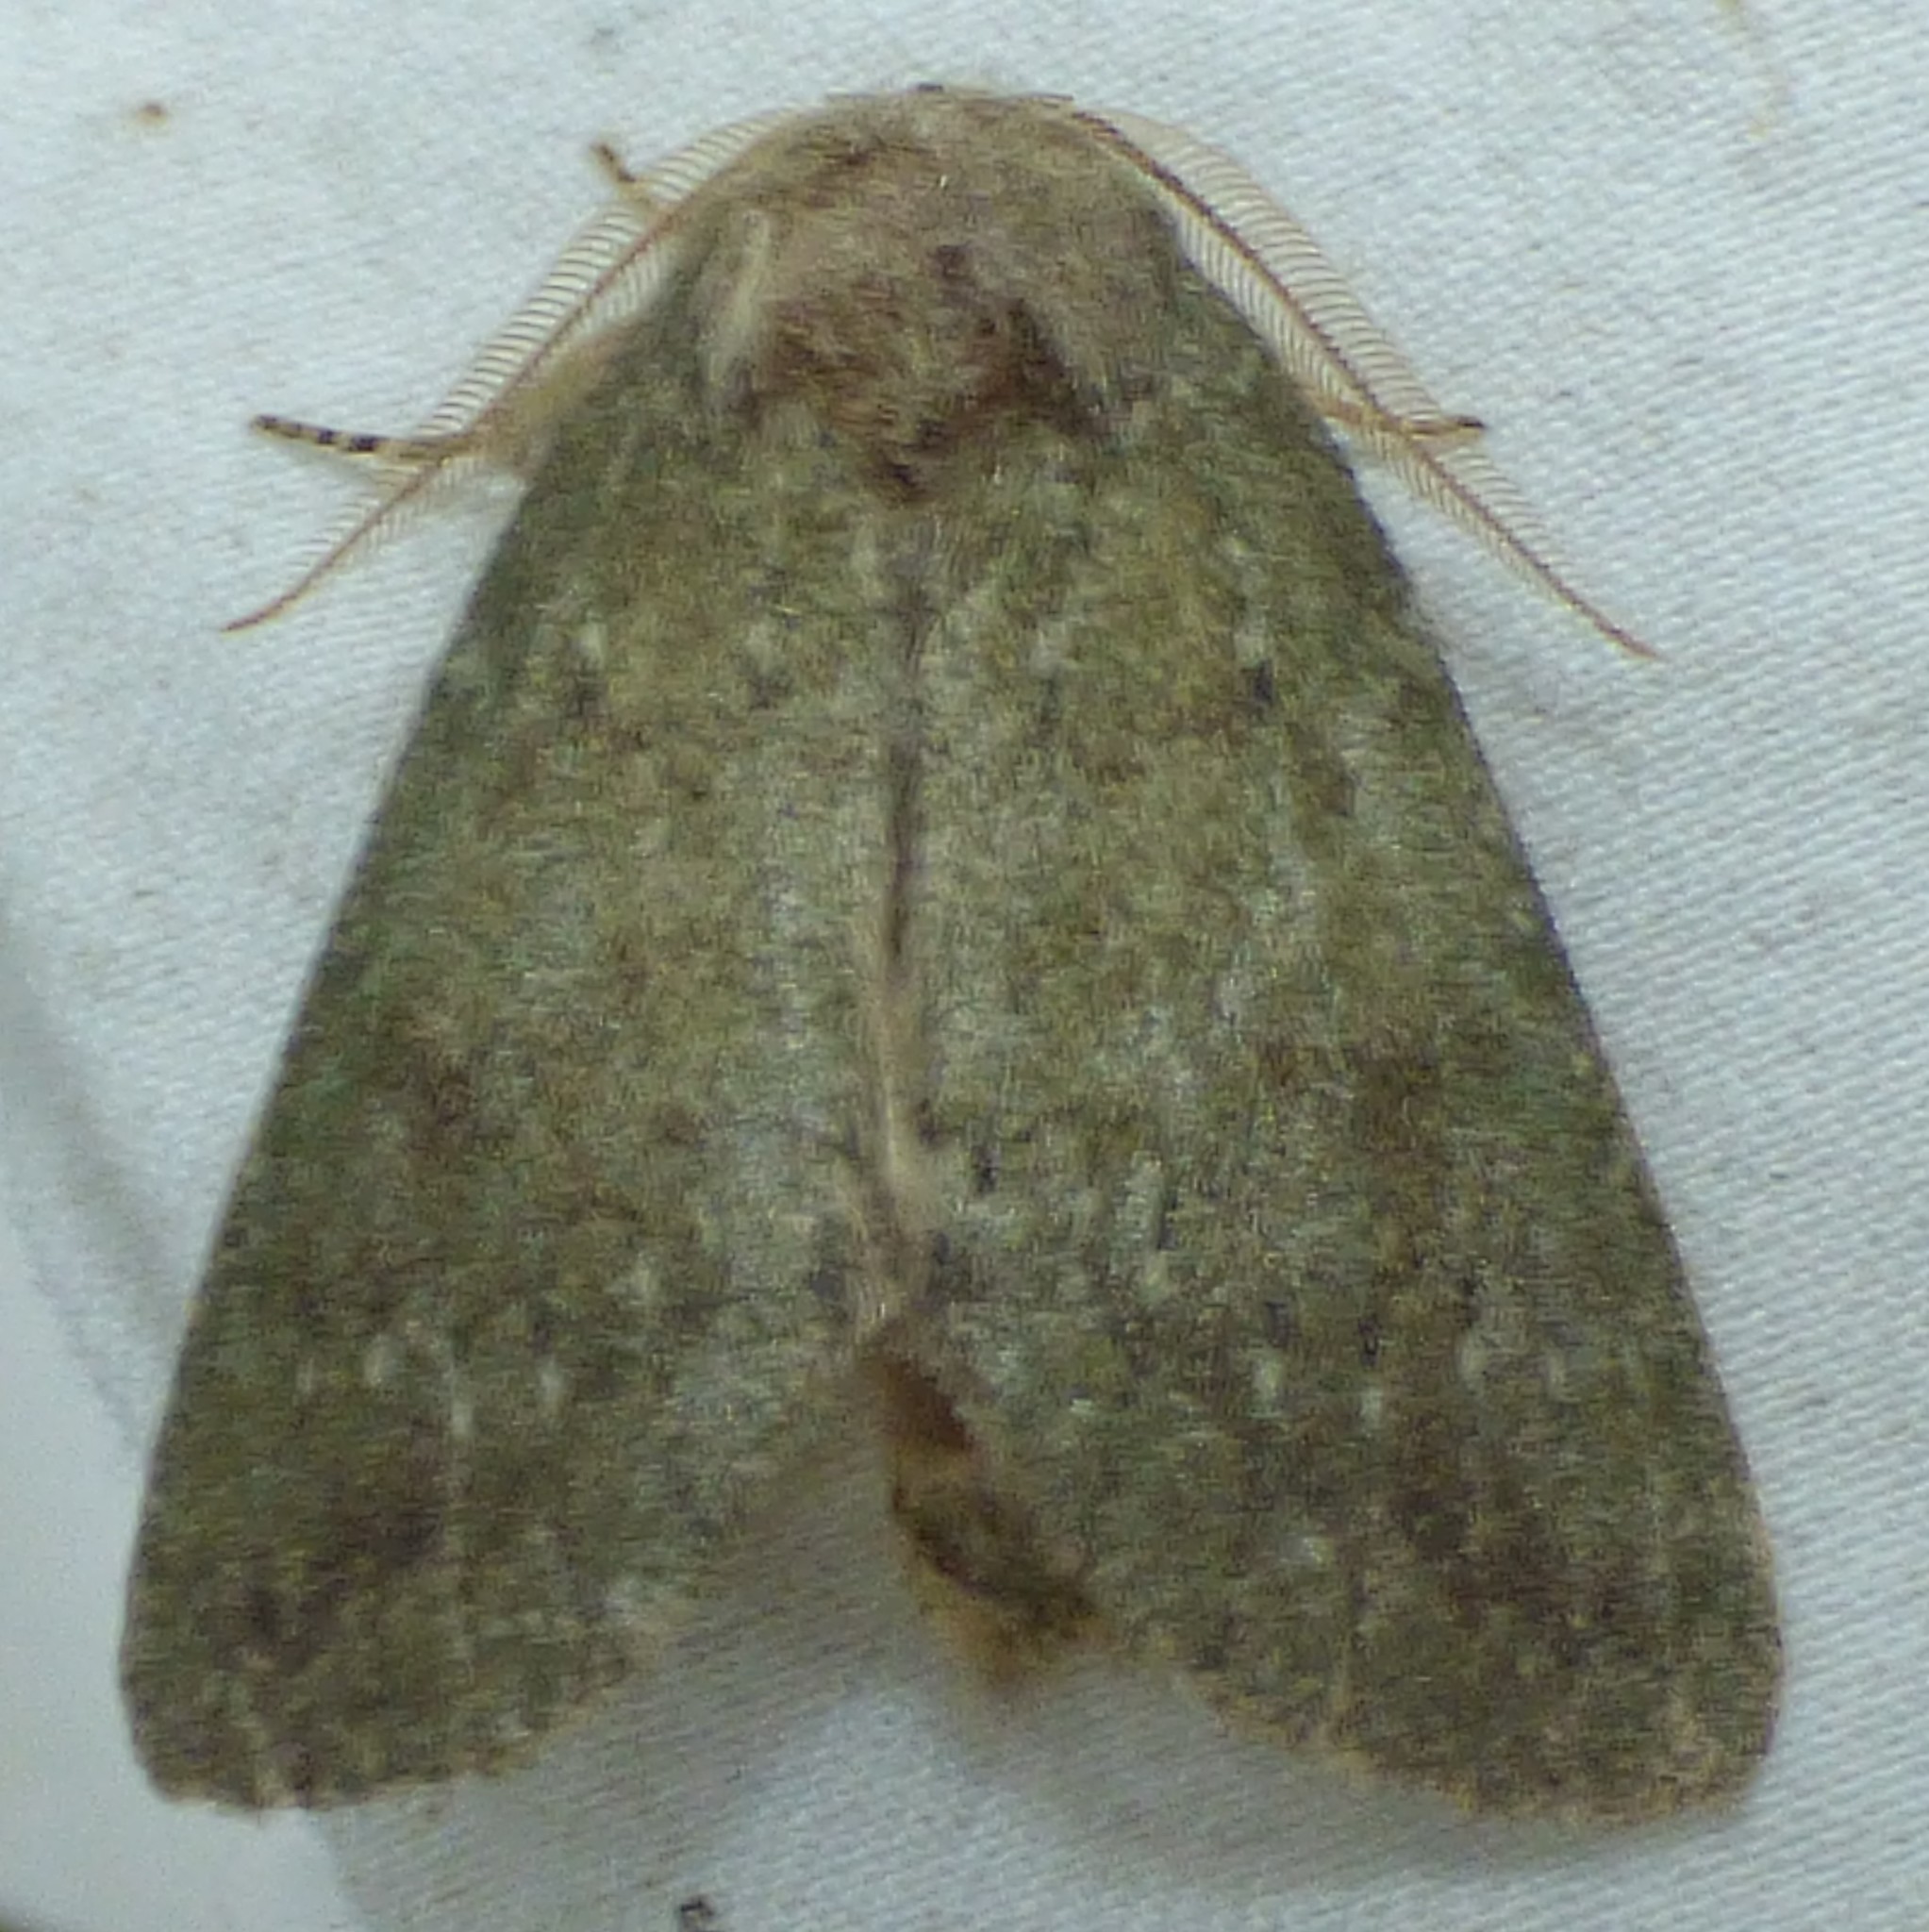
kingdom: Animalia
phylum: Arthropoda
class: Insecta
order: Lepidoptera
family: Notodontidae
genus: Misogada
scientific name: Misogada unicolor
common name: Drab prominent
